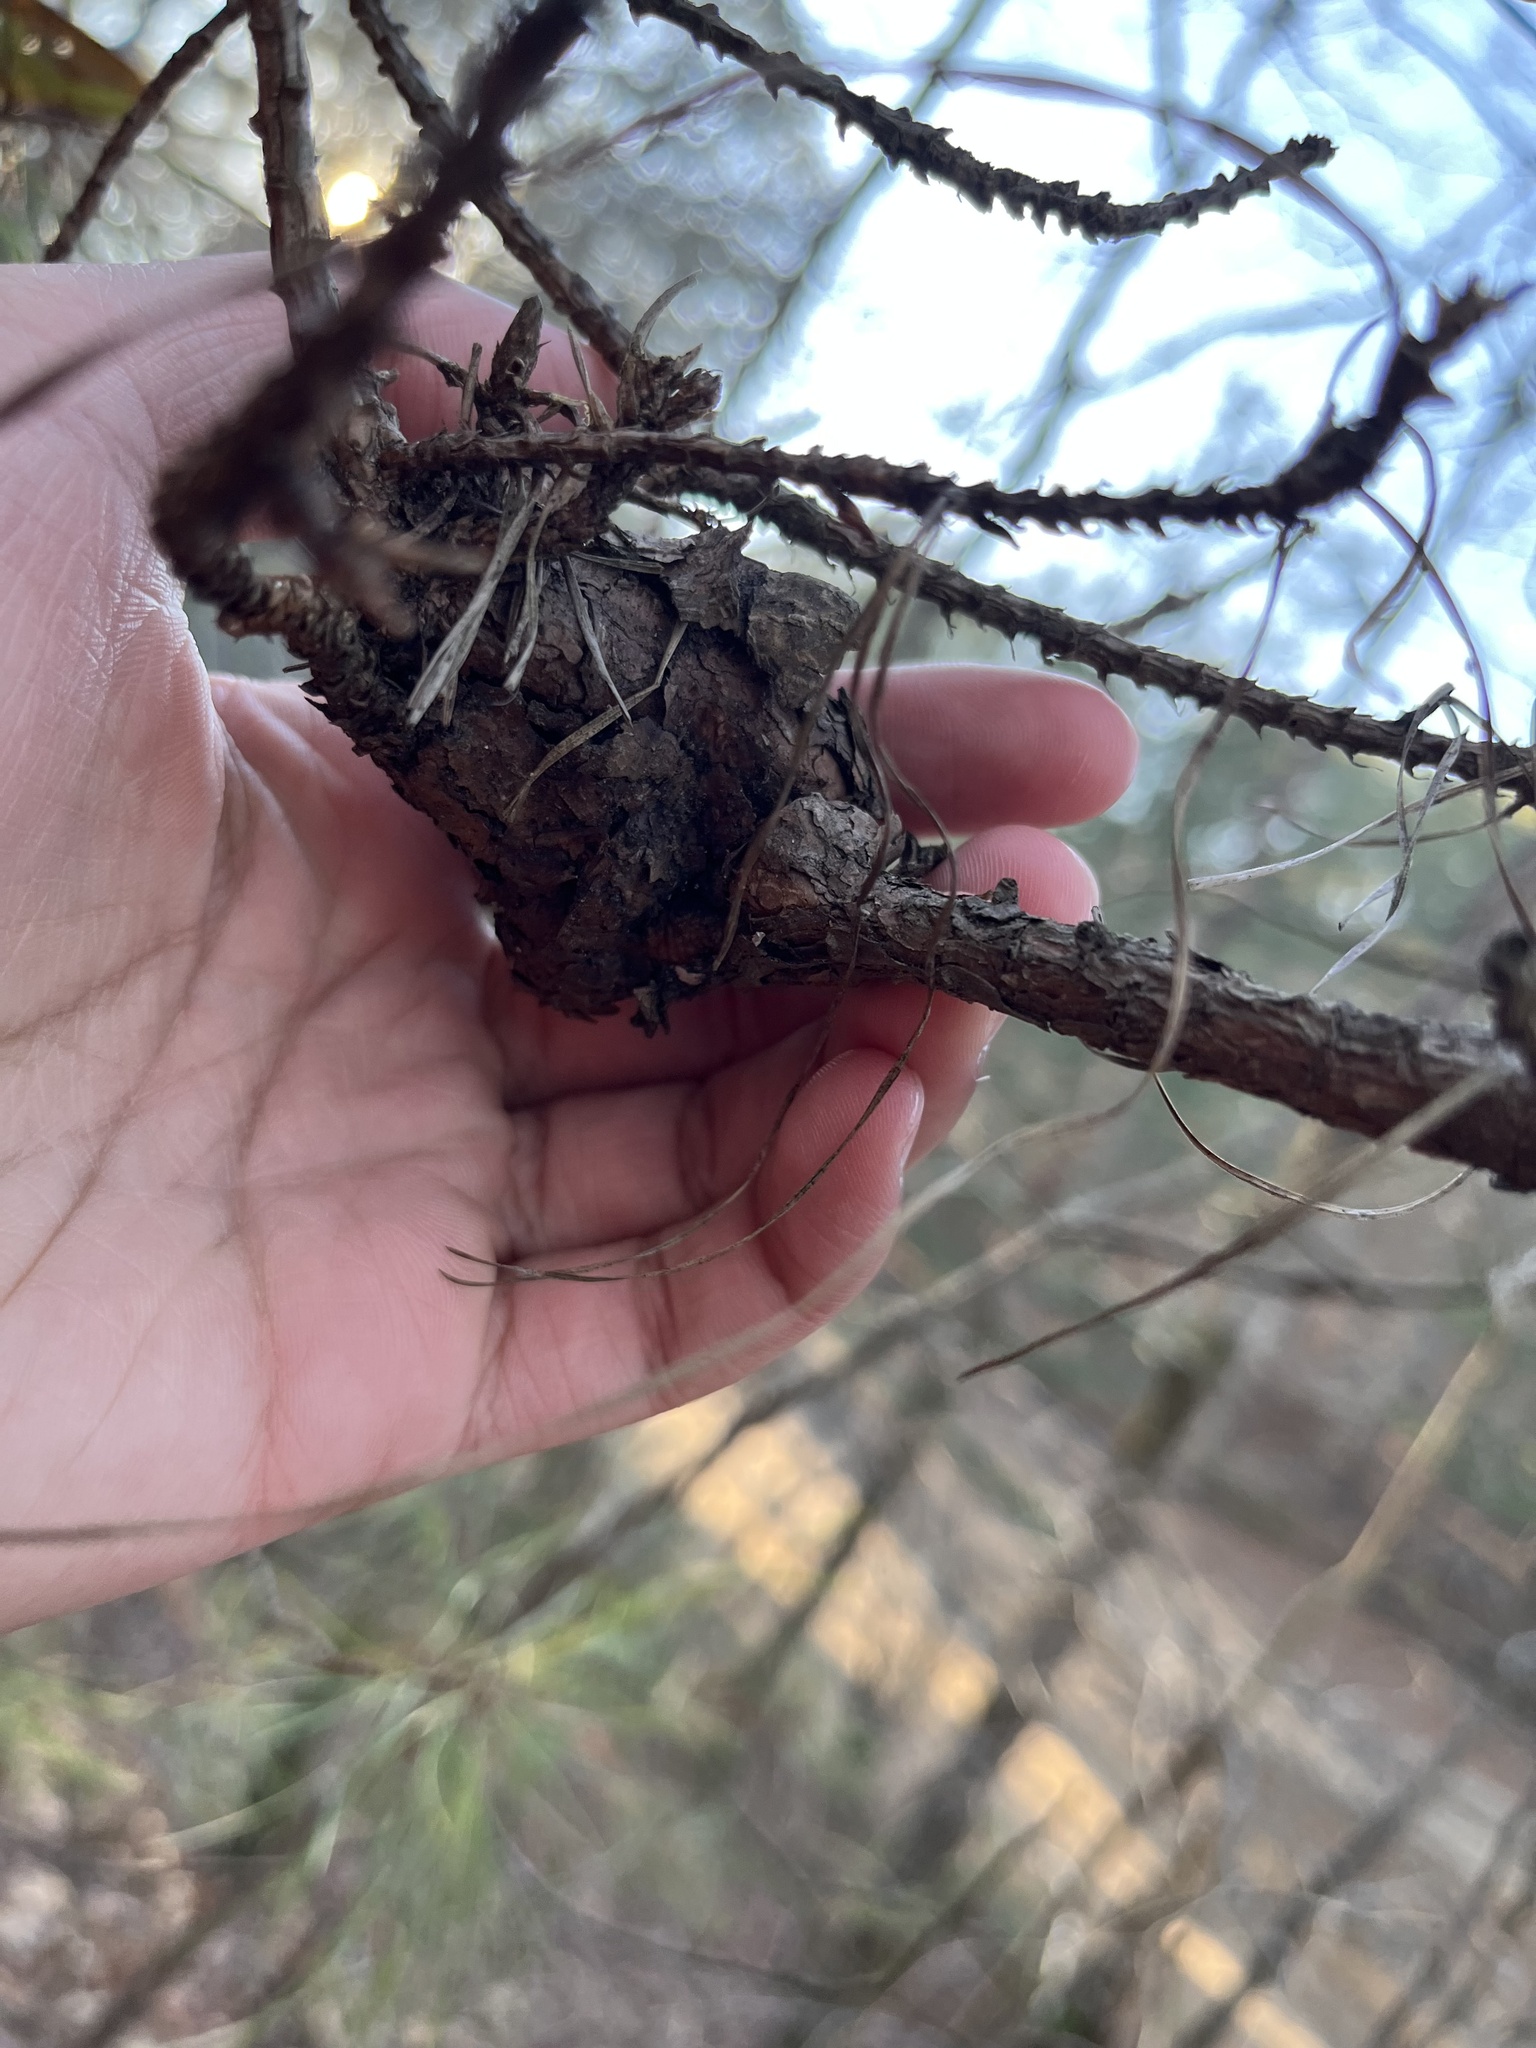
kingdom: Fungi
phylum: Basidiomycota
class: Pucciniomycetes
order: Pucciniales
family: Cronartiaceae
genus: Cronartium
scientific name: Cronartium fusiforme
